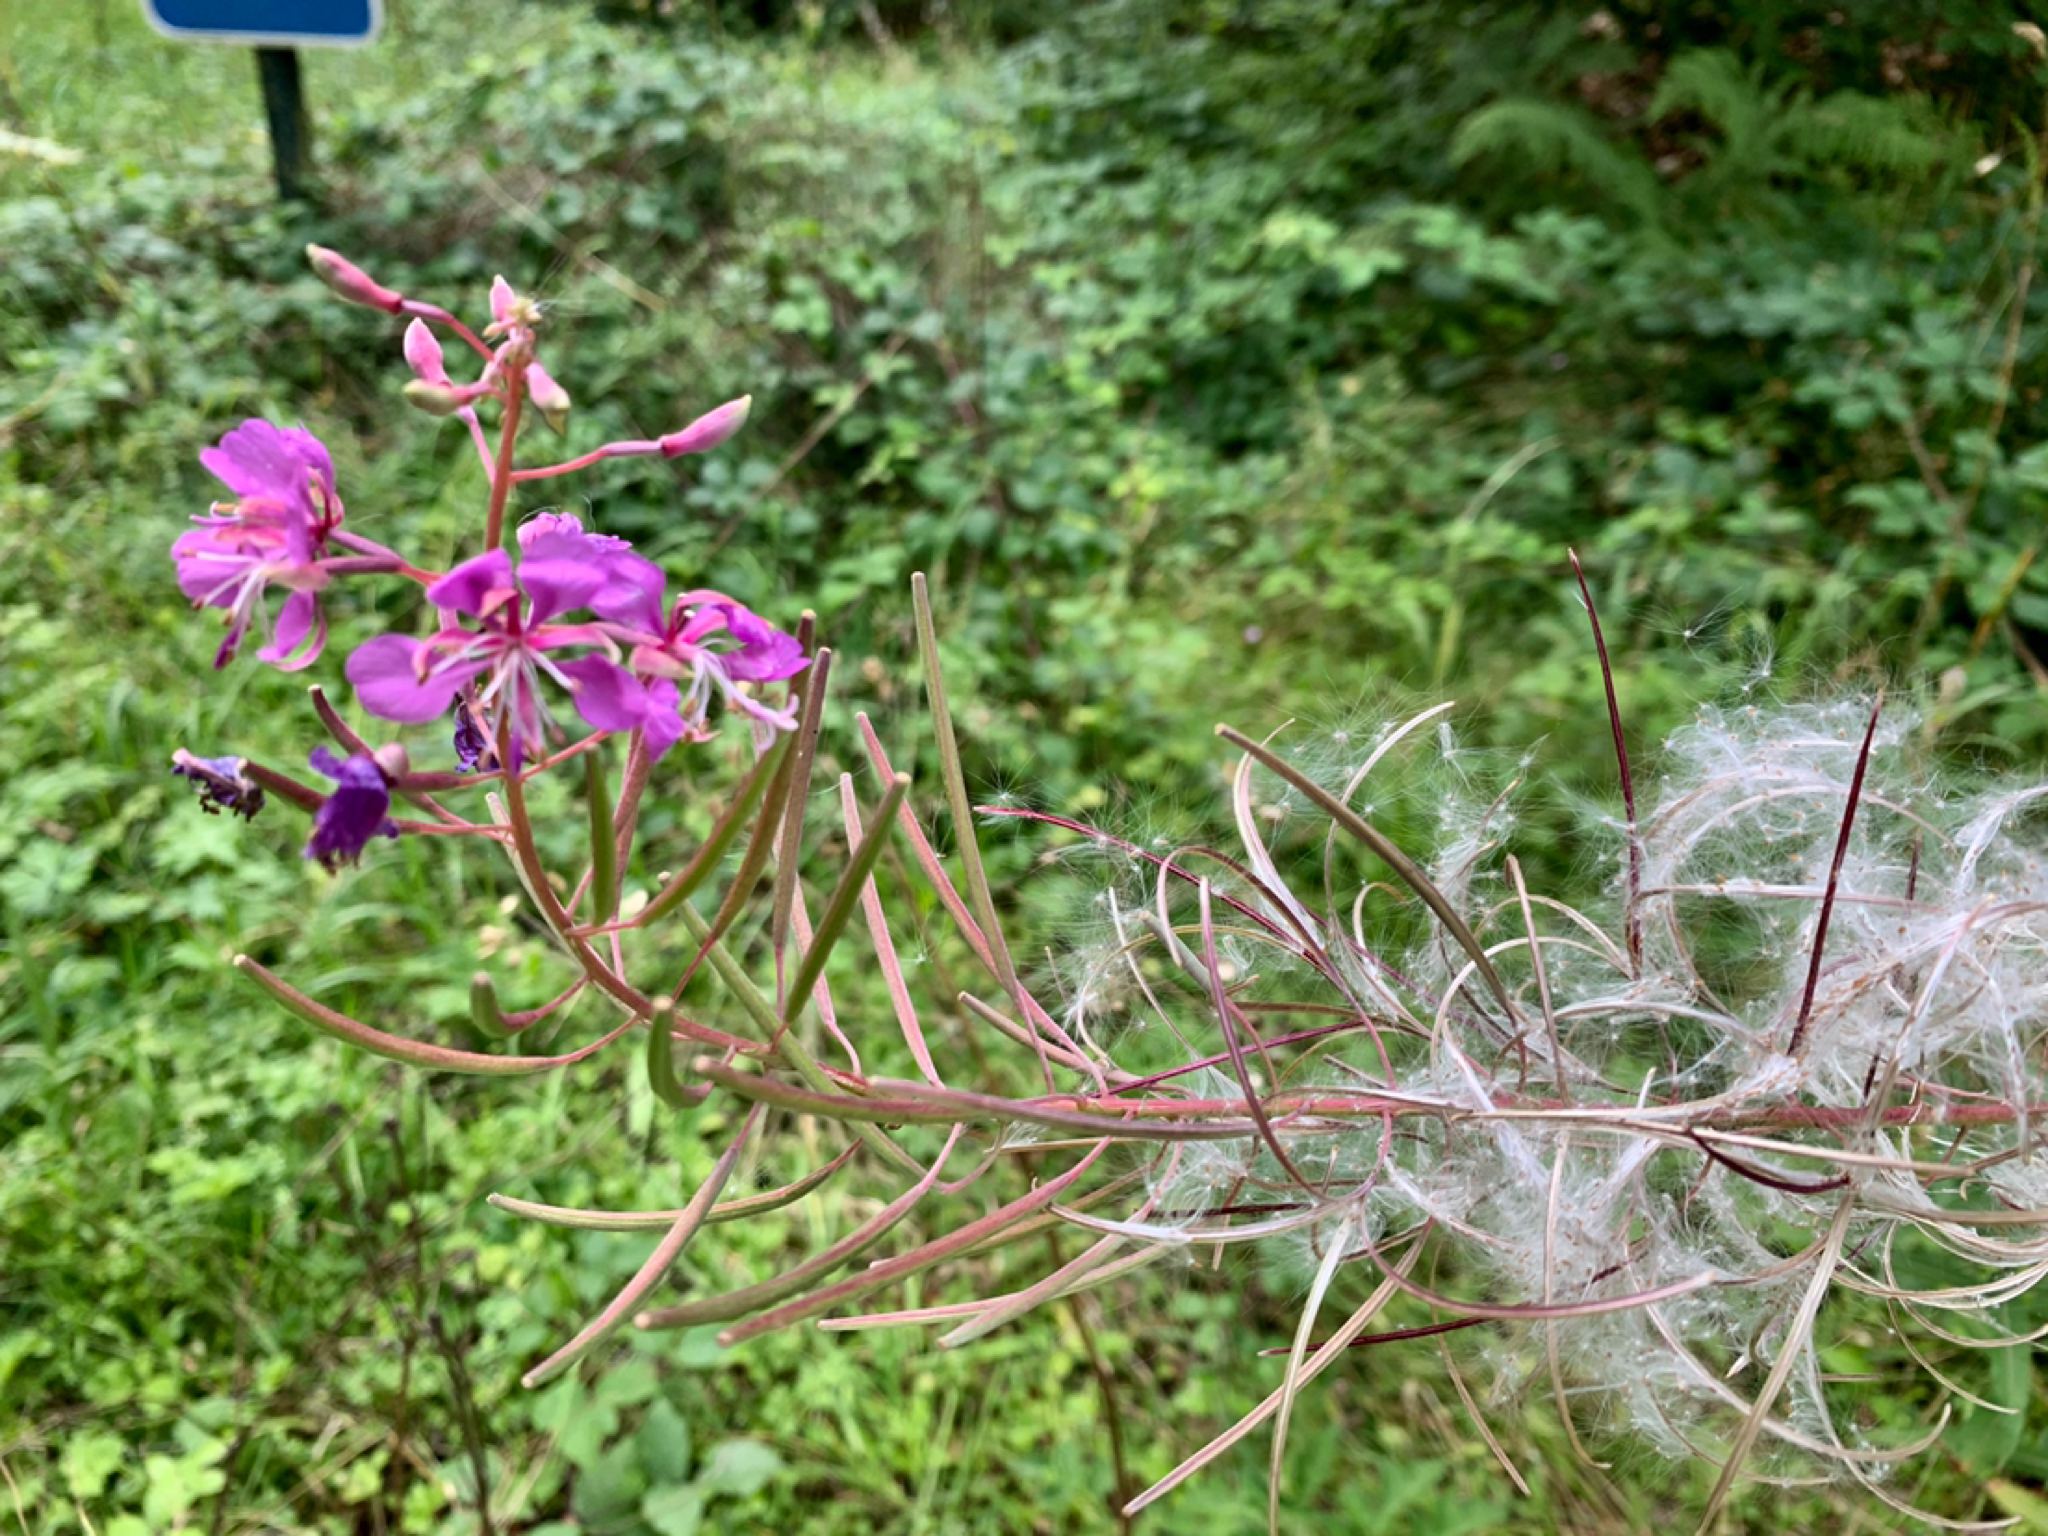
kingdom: Plantae
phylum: Tracheophyta
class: Magnoliopsida
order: Myrtales
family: Onagraceae
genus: Chamaenerion
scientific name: Chamaenerion angustifolium
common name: Fireweed
